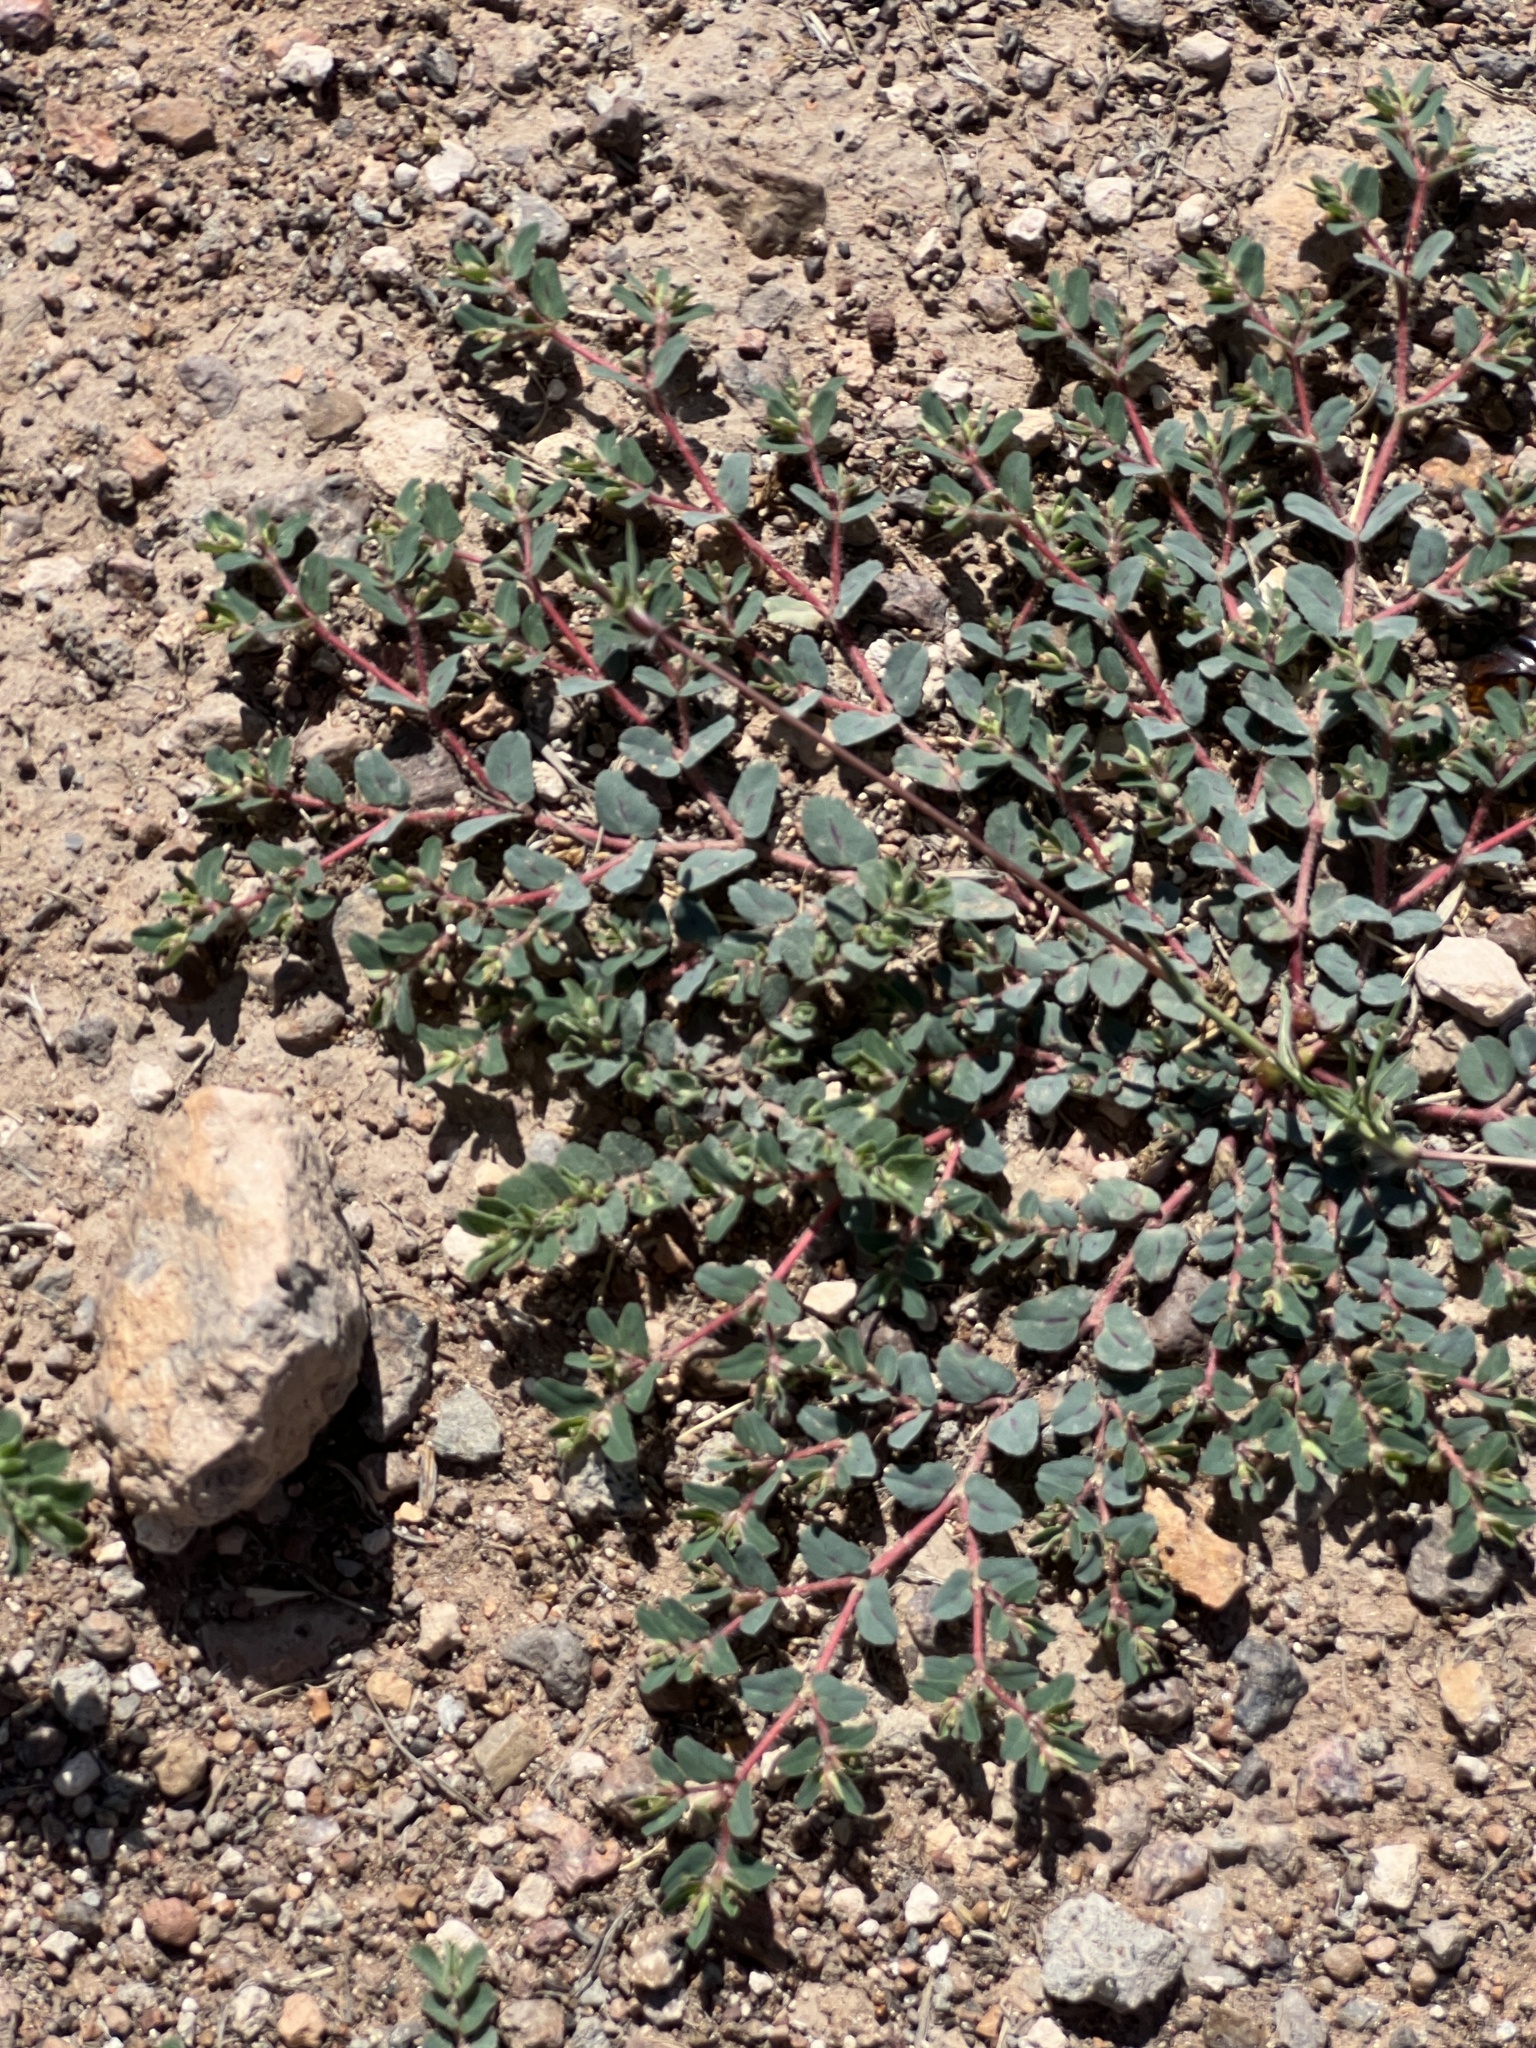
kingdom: Plantae
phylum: Tracheophyta
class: Magnoliopsida
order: Malpighiales
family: Euphorbiaceae
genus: Euphorbia
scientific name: Euphorbia serrula
